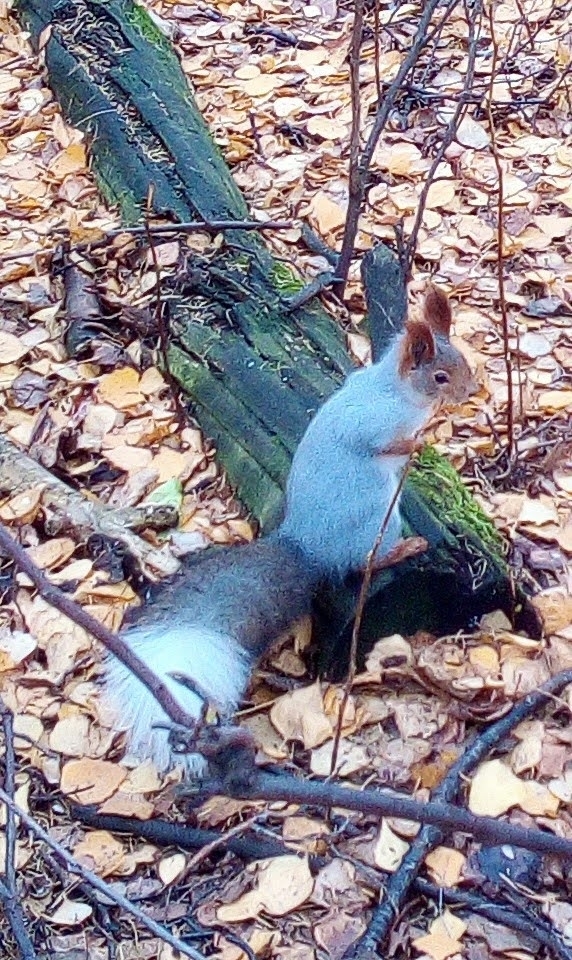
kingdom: Animalia
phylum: Chordata
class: Mammalia
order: Rodentia
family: Sciuridae
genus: Sciurus
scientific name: Sciurus vulgaris
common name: Eurasian red squirrel
